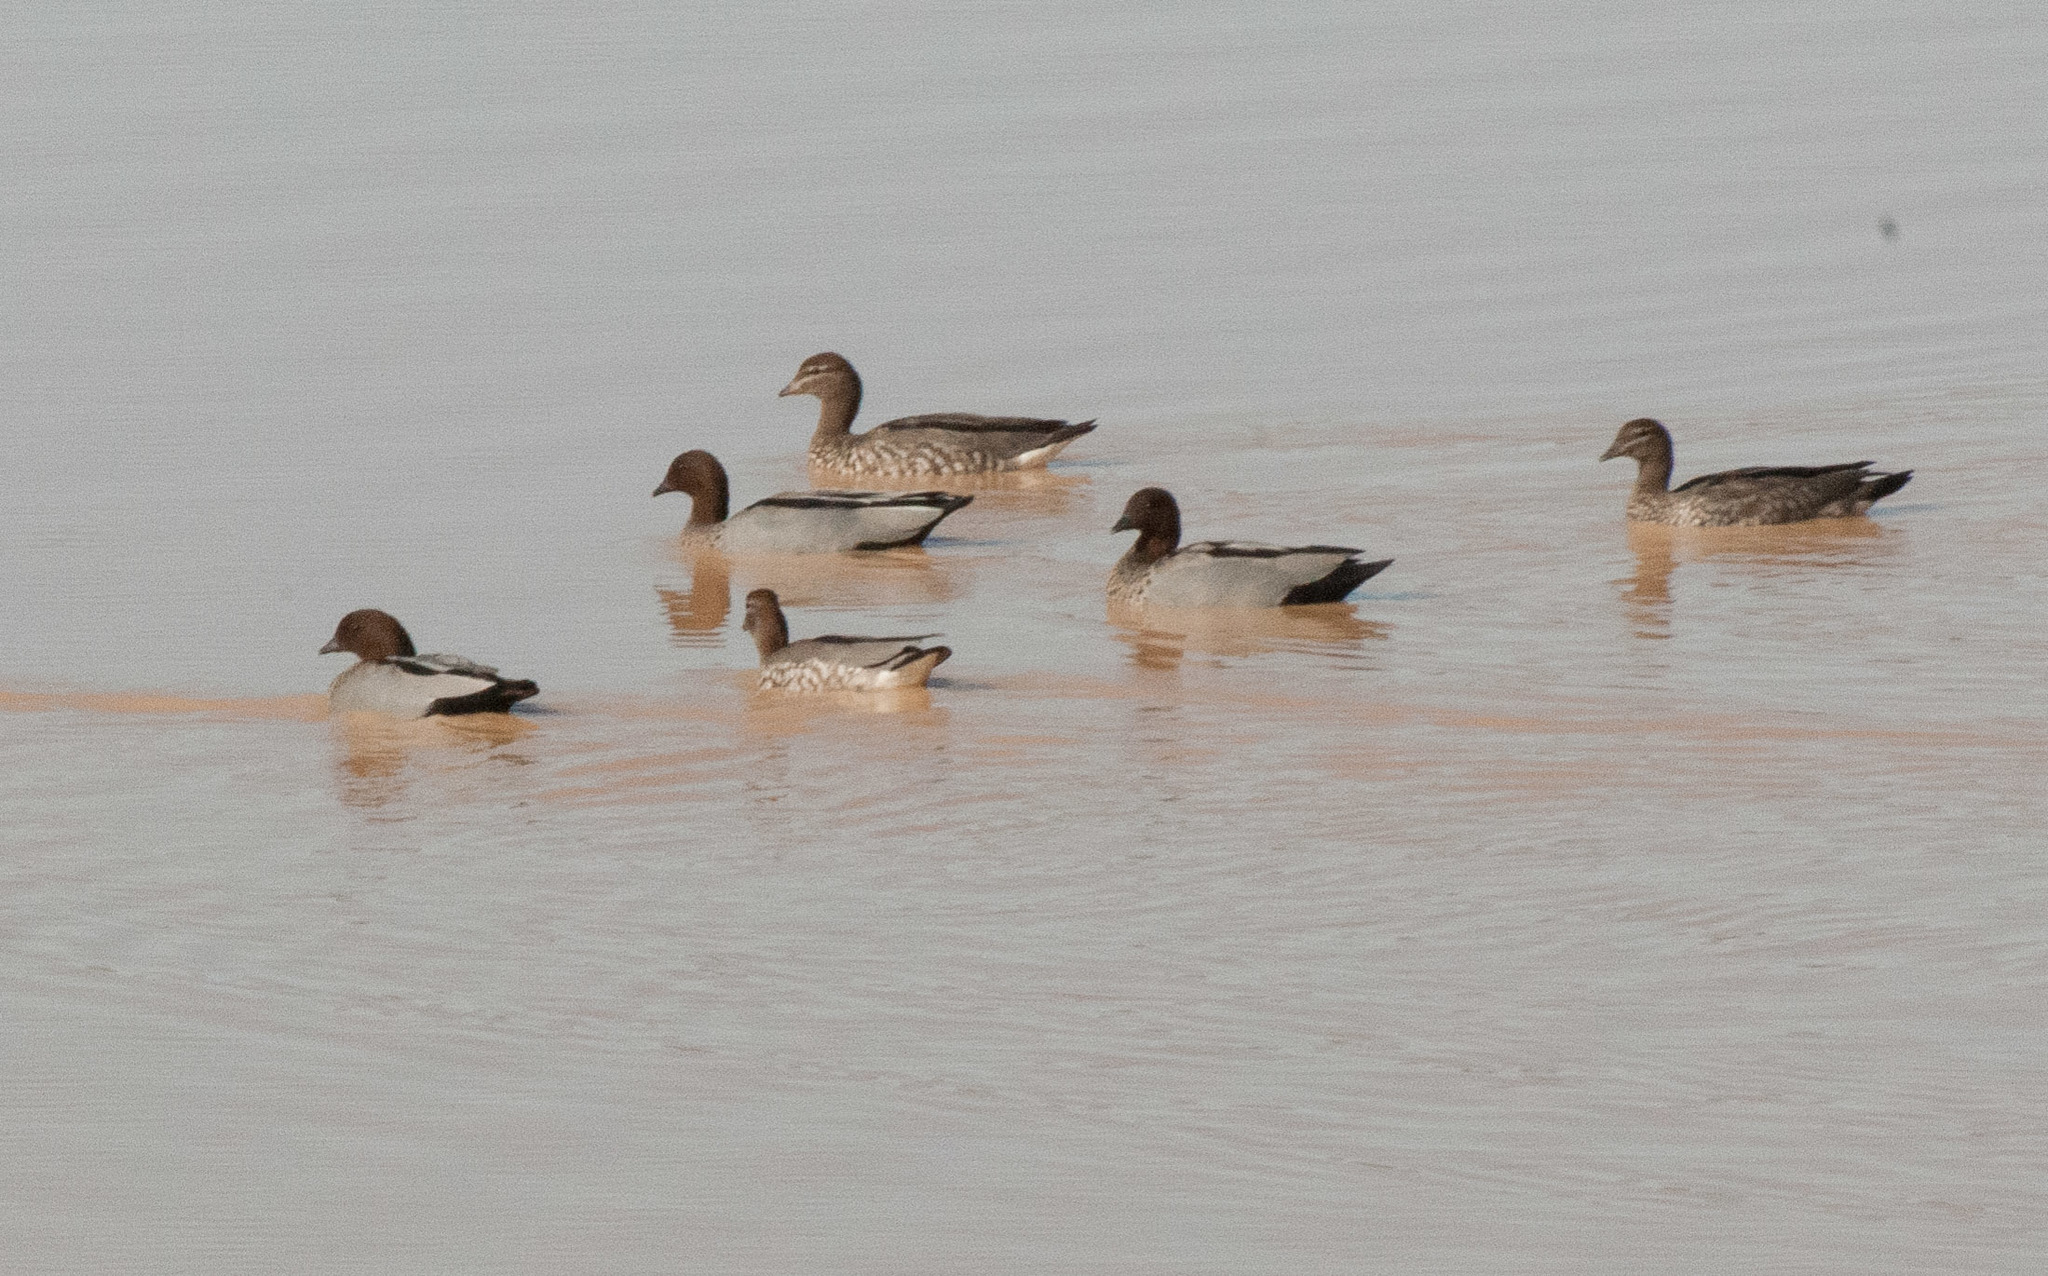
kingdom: Animalia
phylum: Chordata
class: Aves
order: Anseriformes
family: Anatidae
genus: Chenonetta
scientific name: Chenonetta jubata
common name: Maned duck
